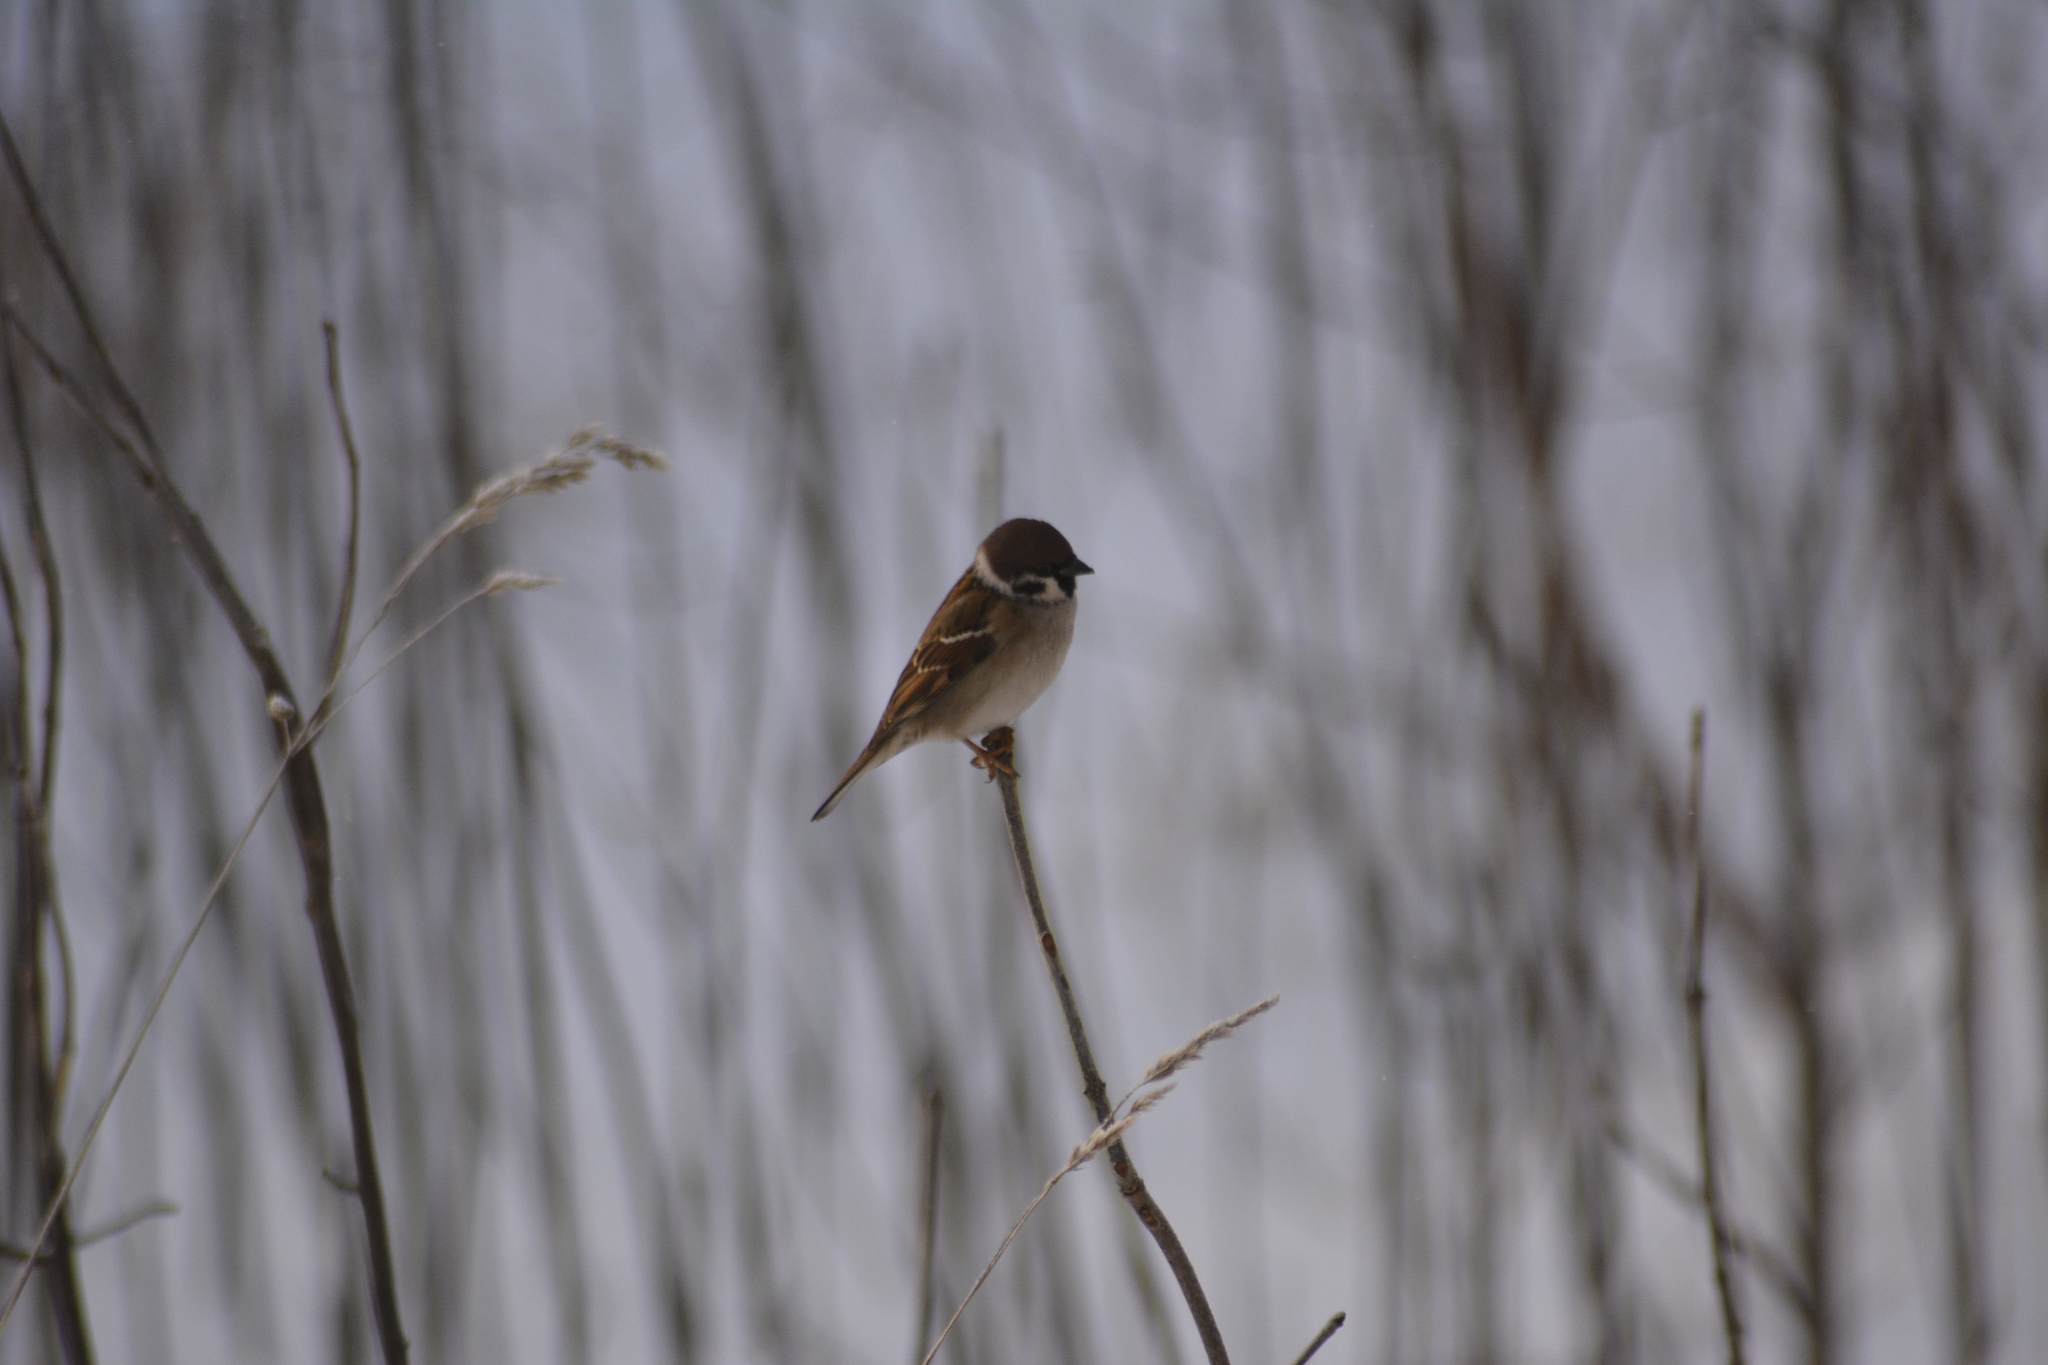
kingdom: Animalia
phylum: Chordata
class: Aves
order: Passeriformes
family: Passeridae
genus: Passer
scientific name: Passer montanus
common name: Eurasian tree sparrow
